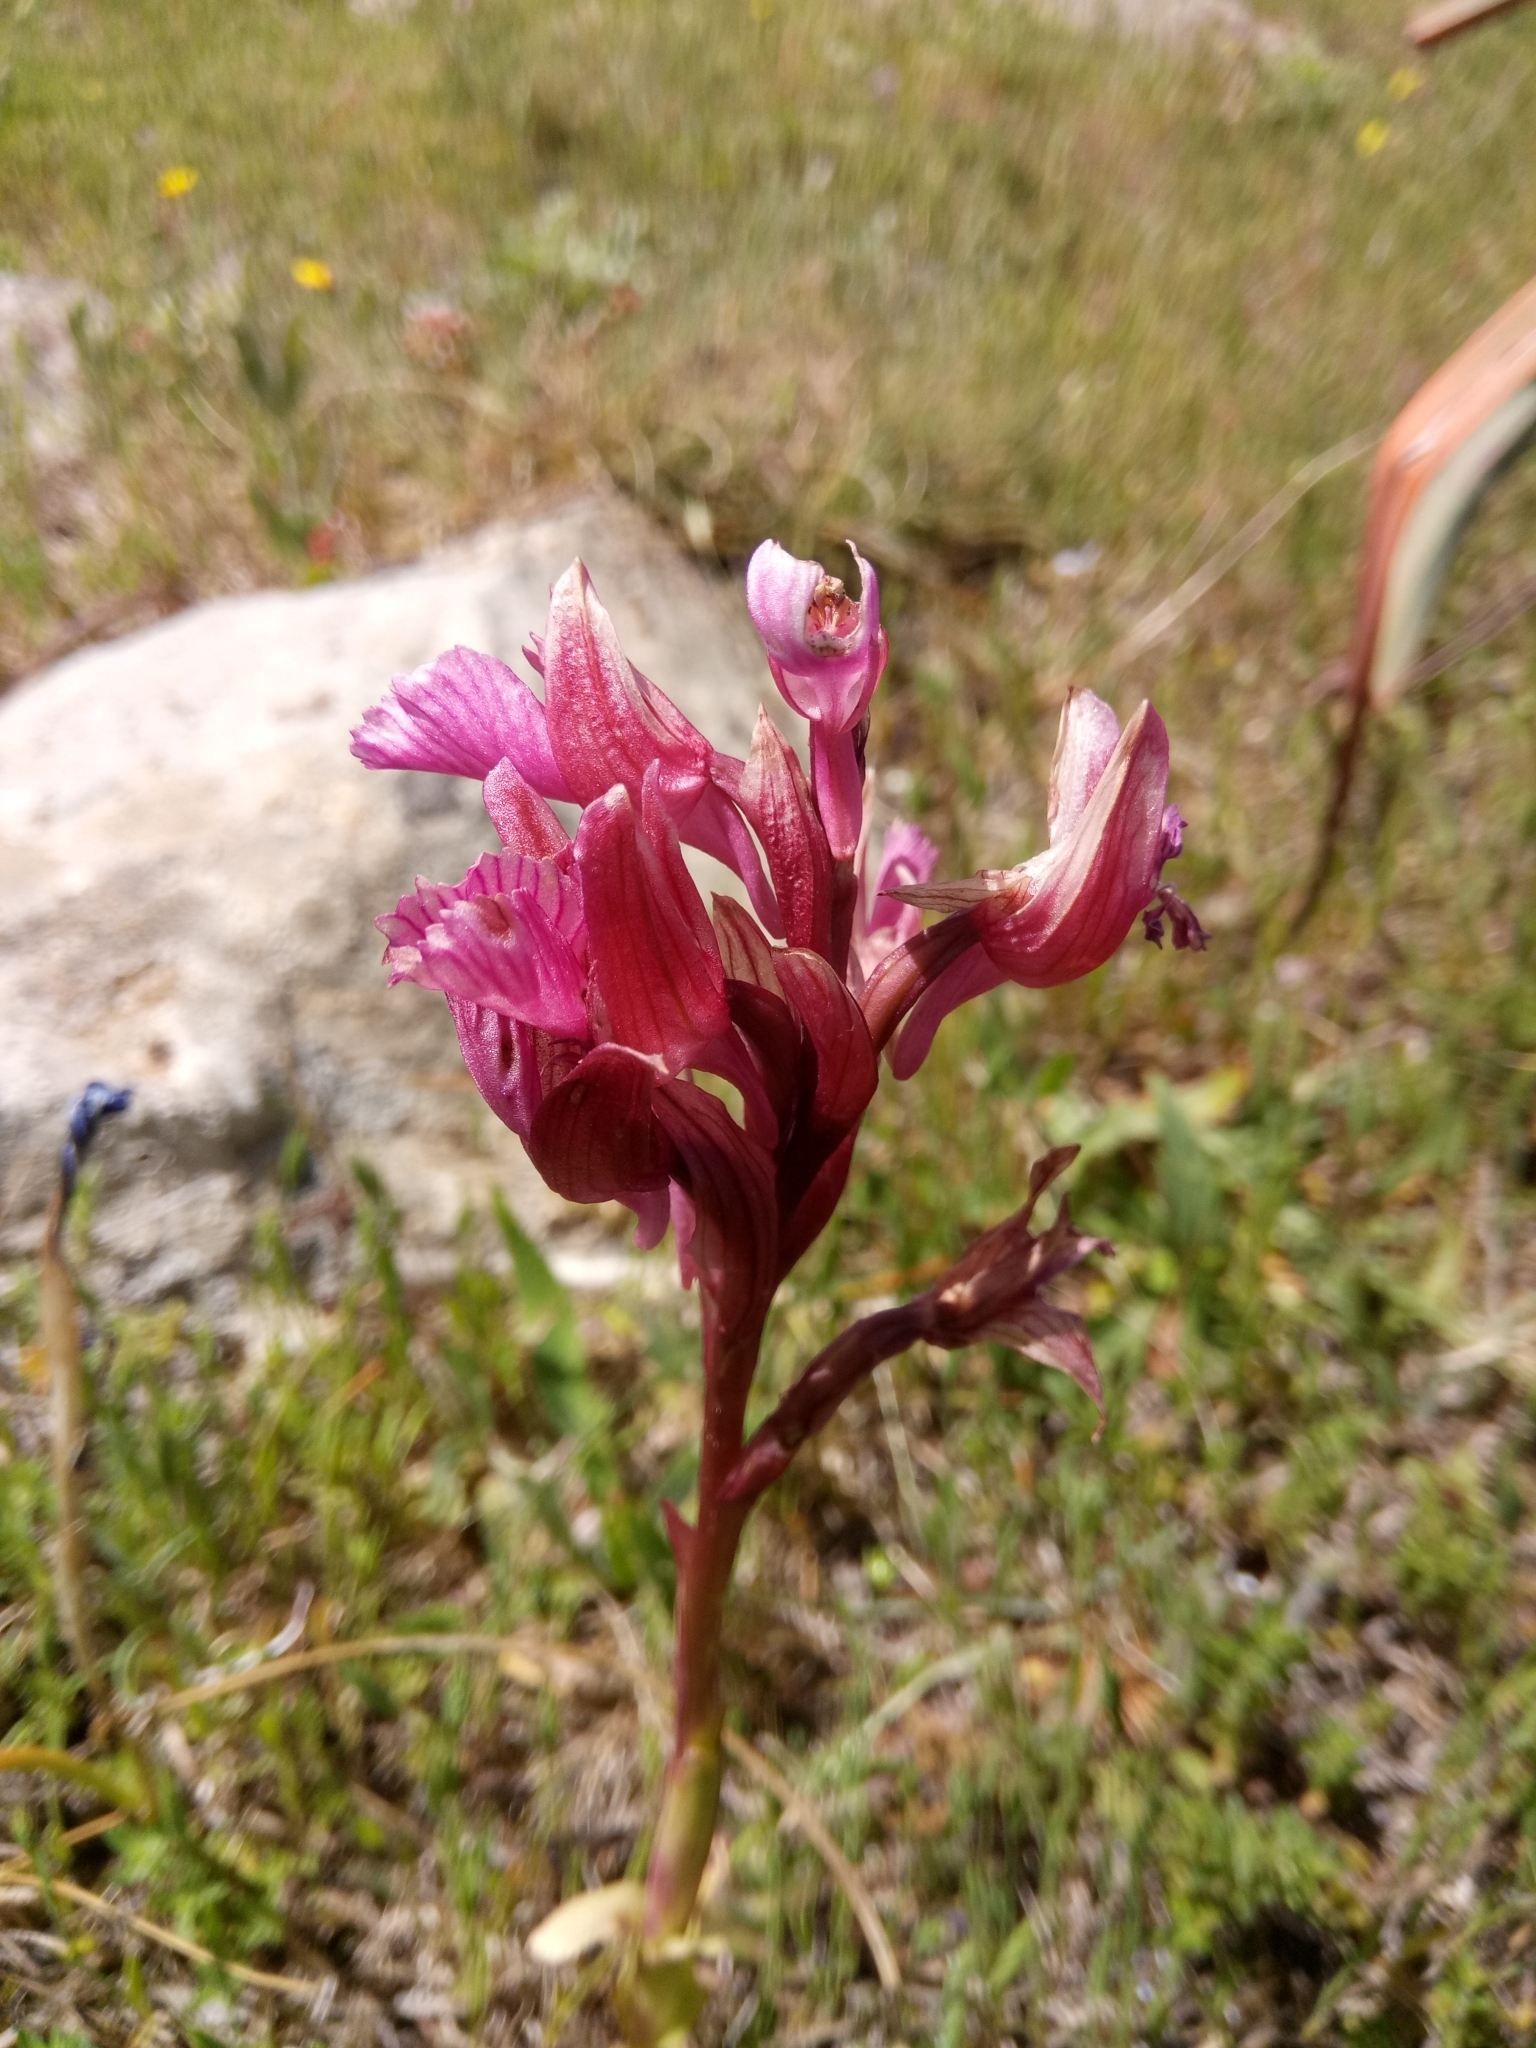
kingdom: Plantae
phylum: Tracheophyta
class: Liliopsida
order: Asparagales
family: Orchidaceae
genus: Anacamptis
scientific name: Anacamptis papilionacea
